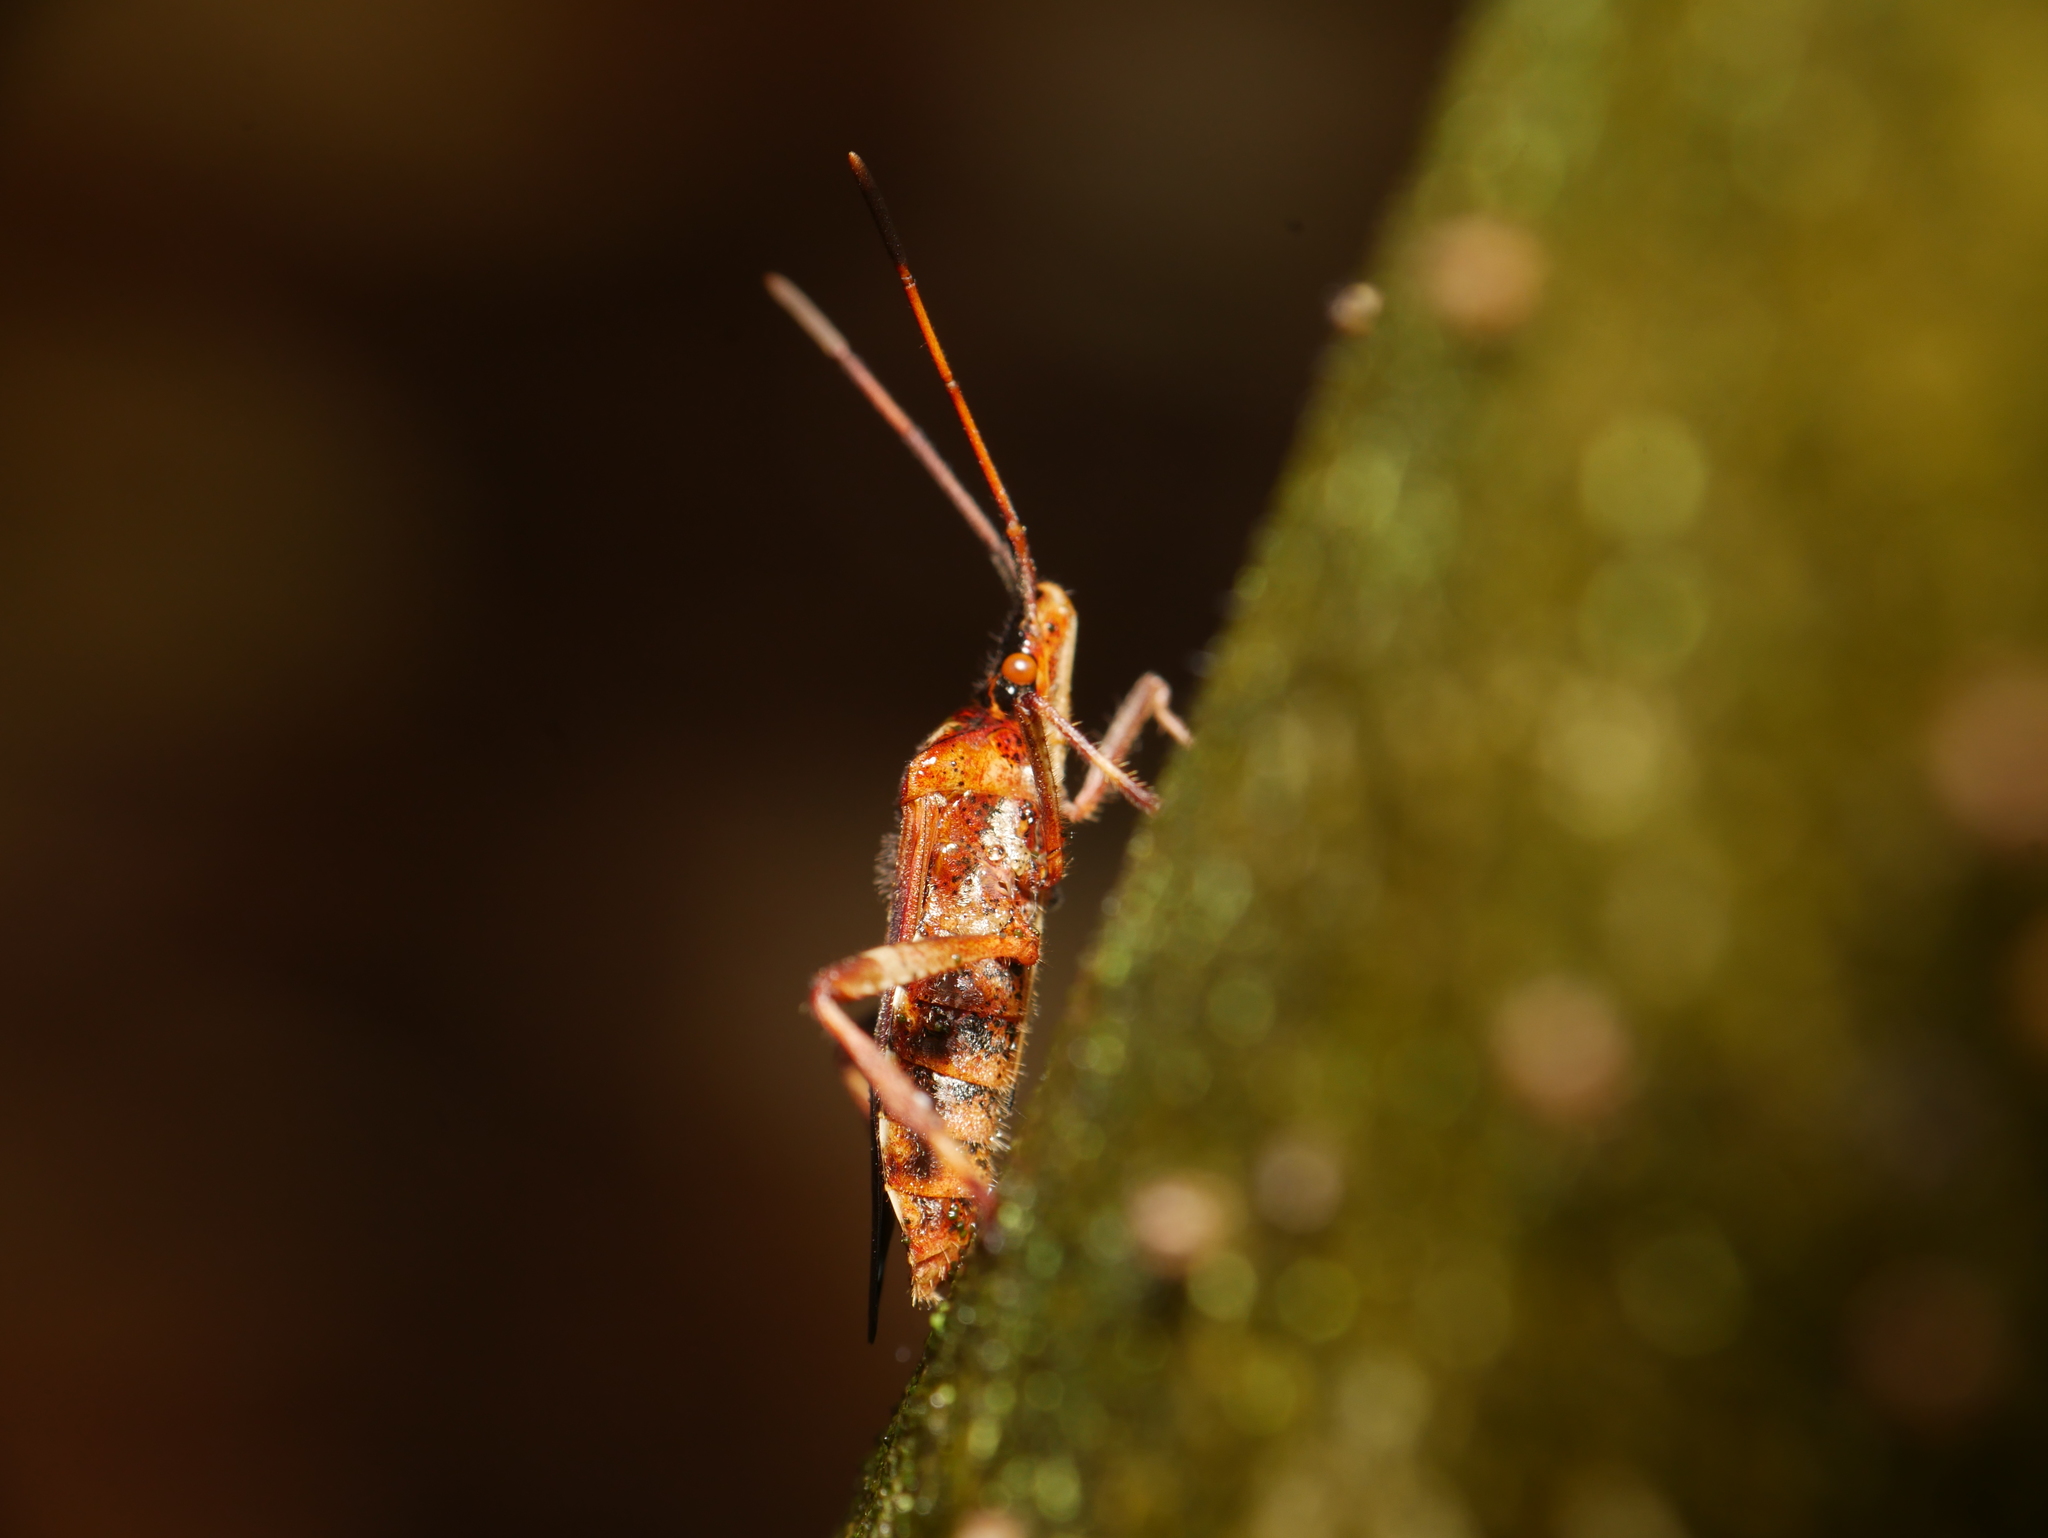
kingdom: Animalia
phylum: Arthropoda
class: Insecta
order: Hemiptera
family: Coreidae
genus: Leptoglossus
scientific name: Leptoglossus occidentalis
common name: Western conifer-seed bug
